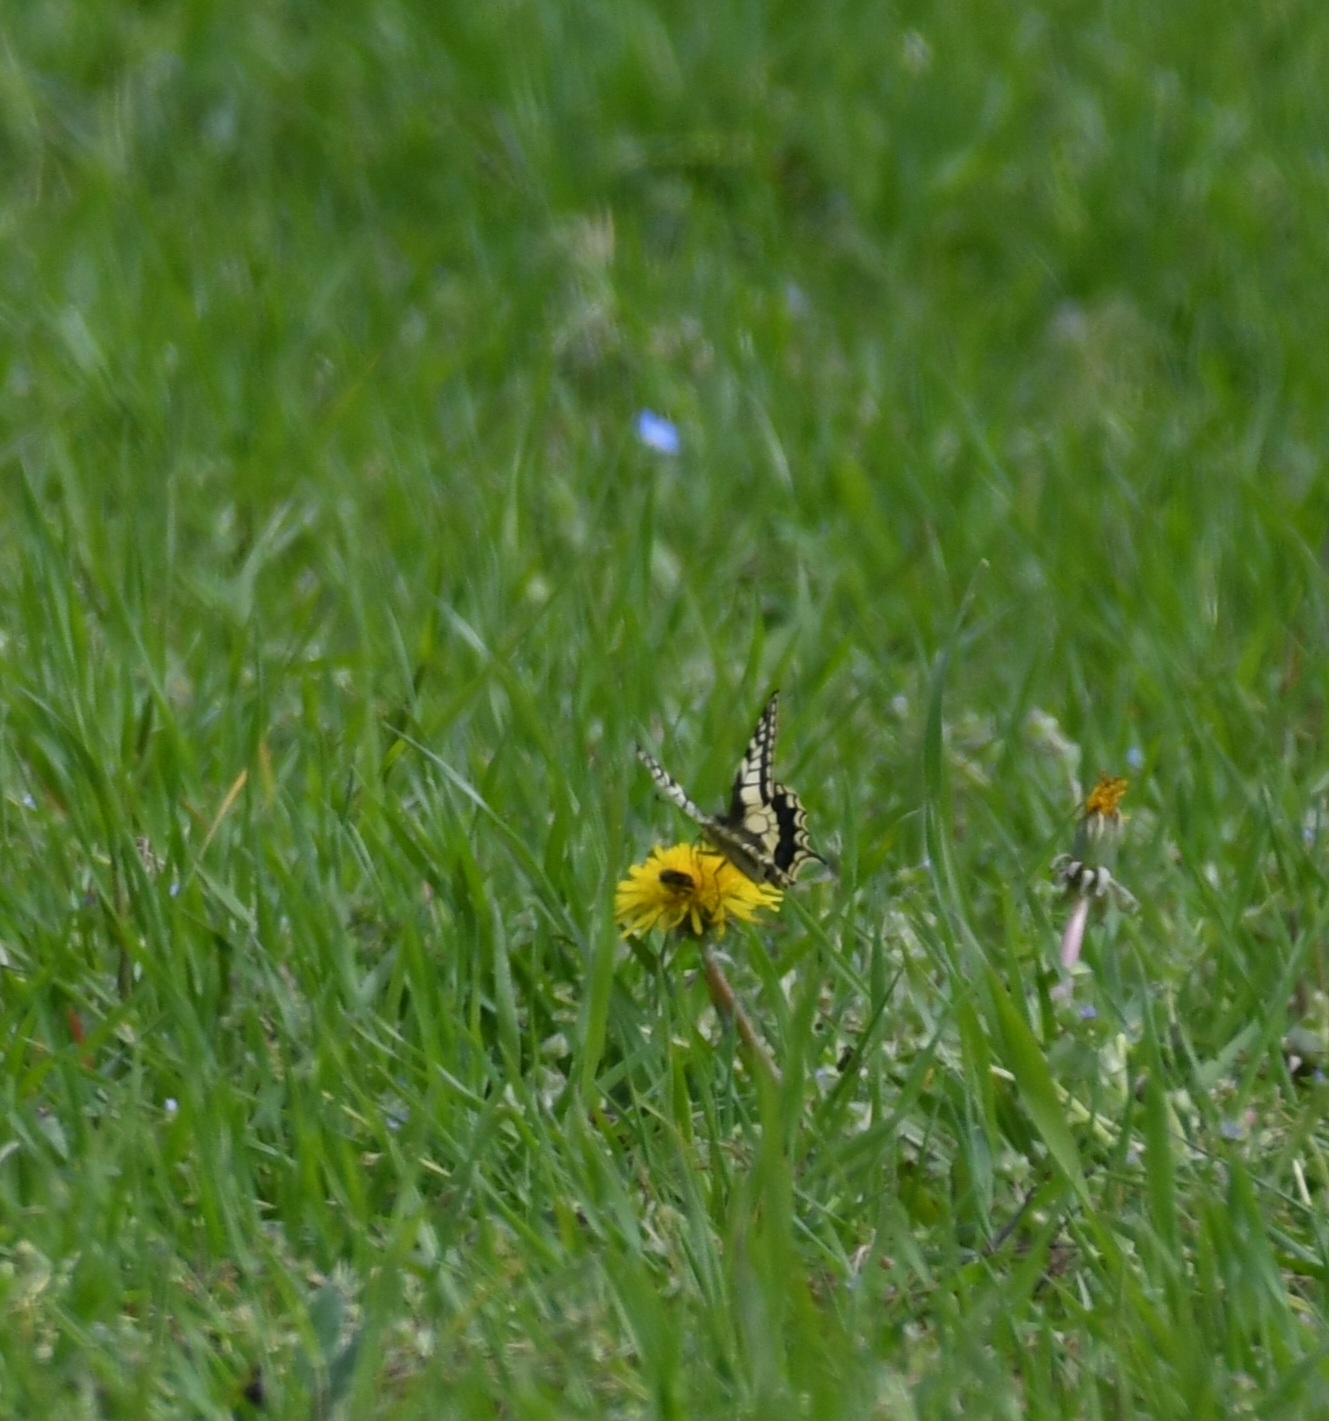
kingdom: Animalia
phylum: Arthropoda
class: Insecta
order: Lepidoptera
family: Papilionidae
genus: Papilio
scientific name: Papilio machaon
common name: Swallowtail
